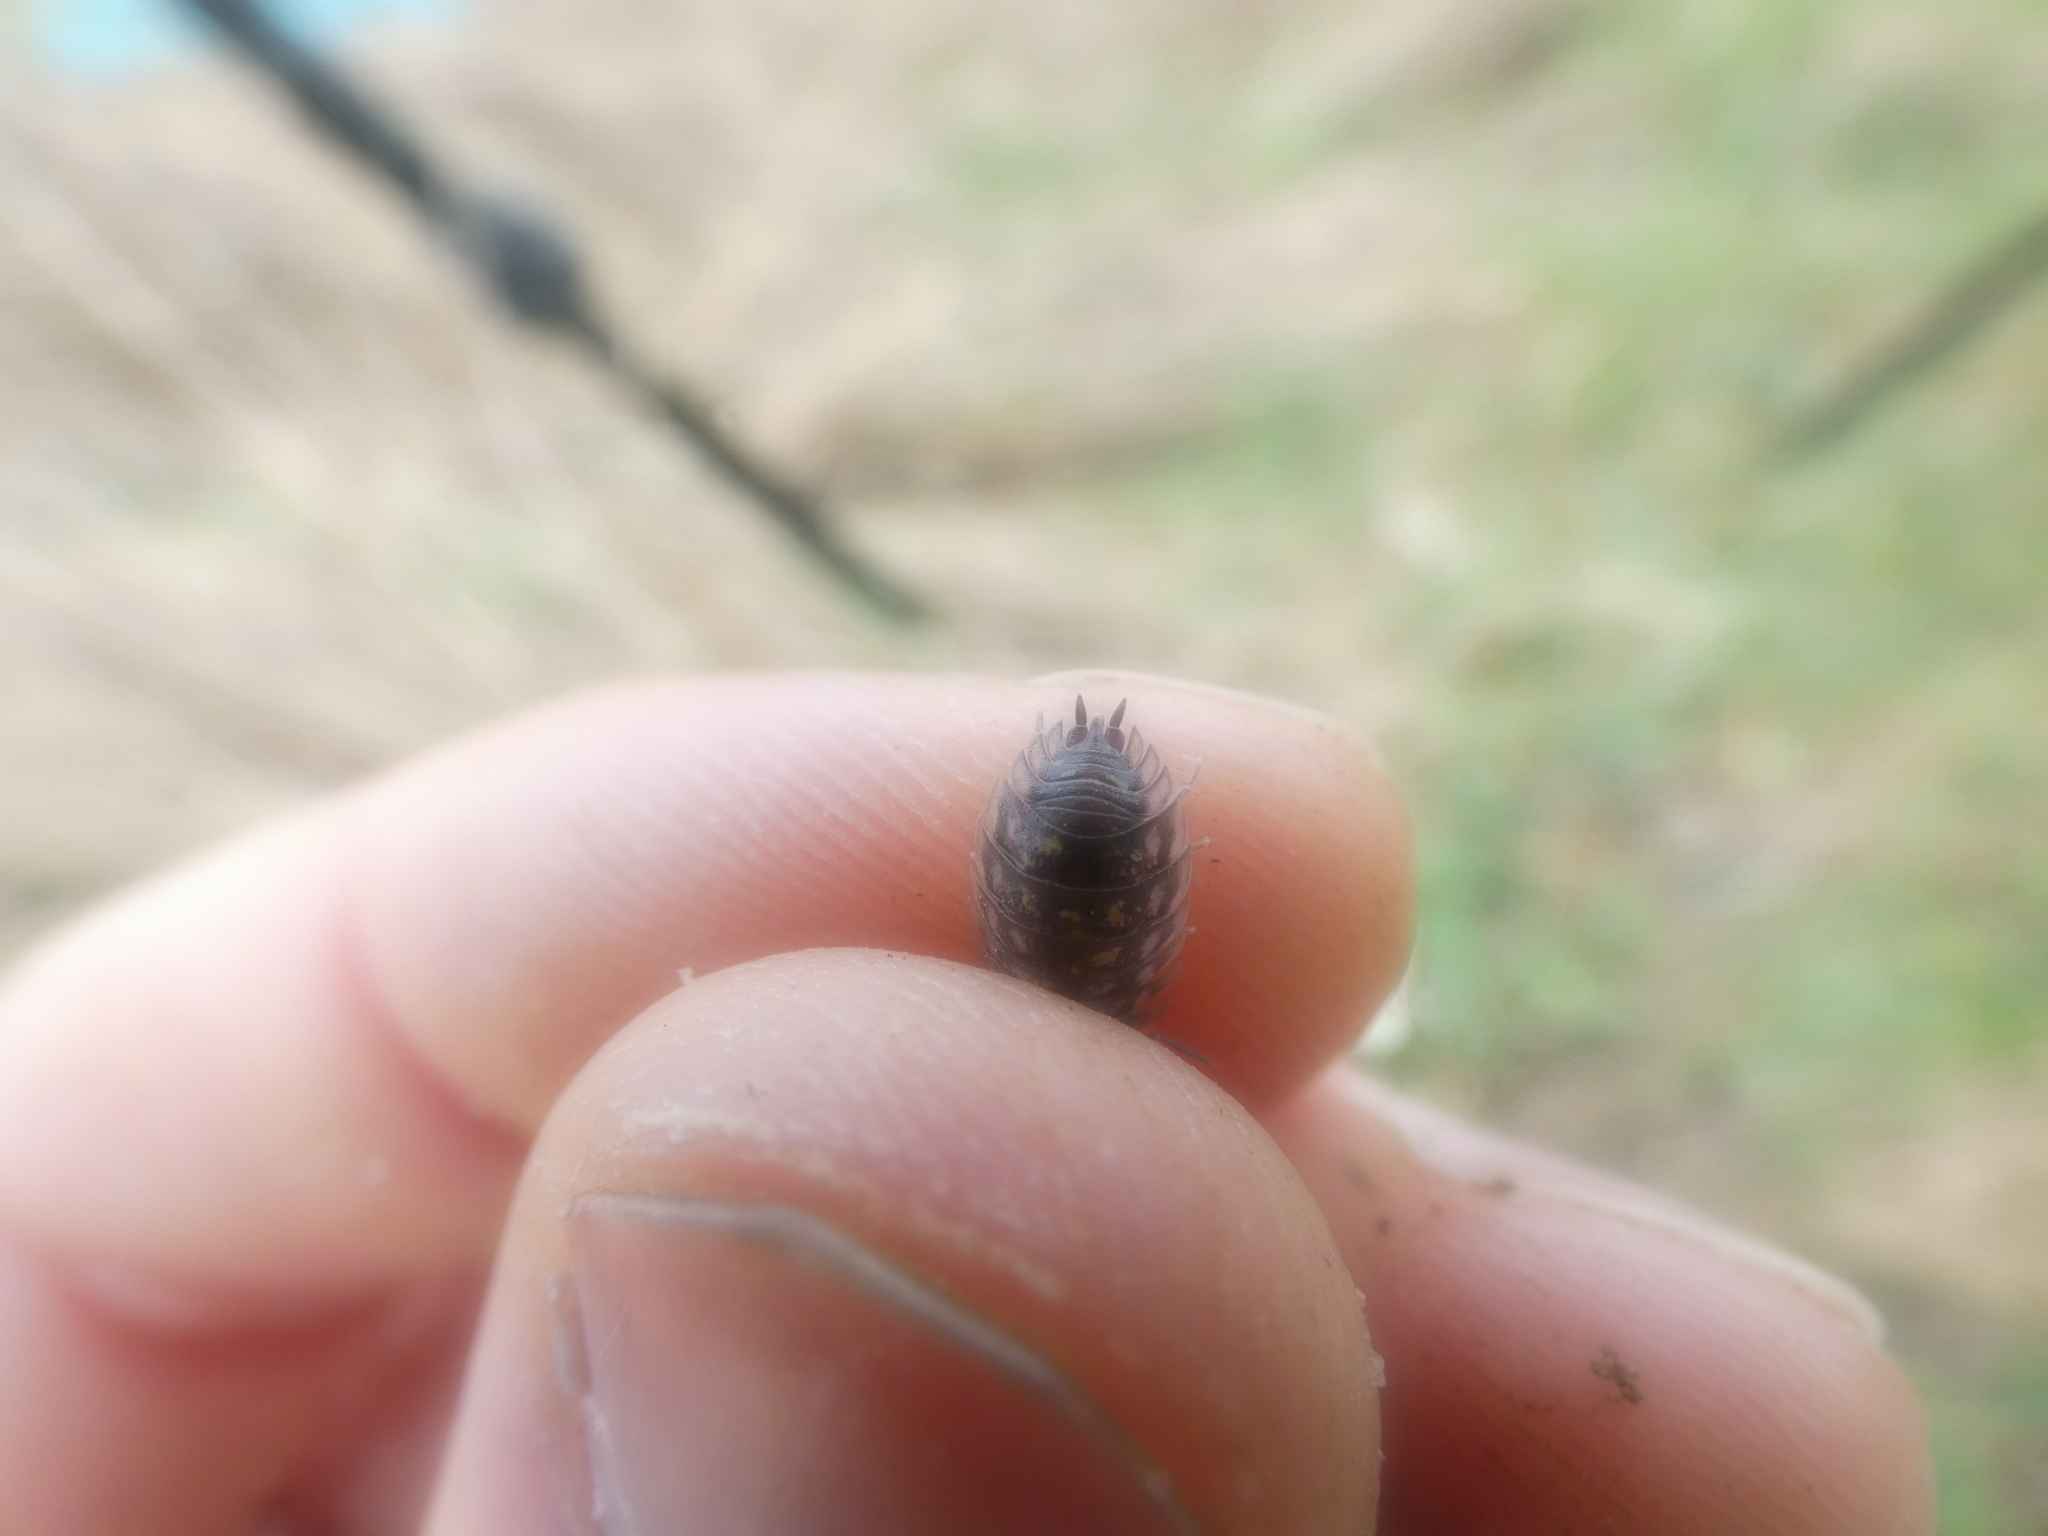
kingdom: Animalia
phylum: Arthropoda
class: Malacostraca
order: Isopoda
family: Oniscidae
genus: Oniscus
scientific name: Oniscus asellus
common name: Common shiny woodlouse
